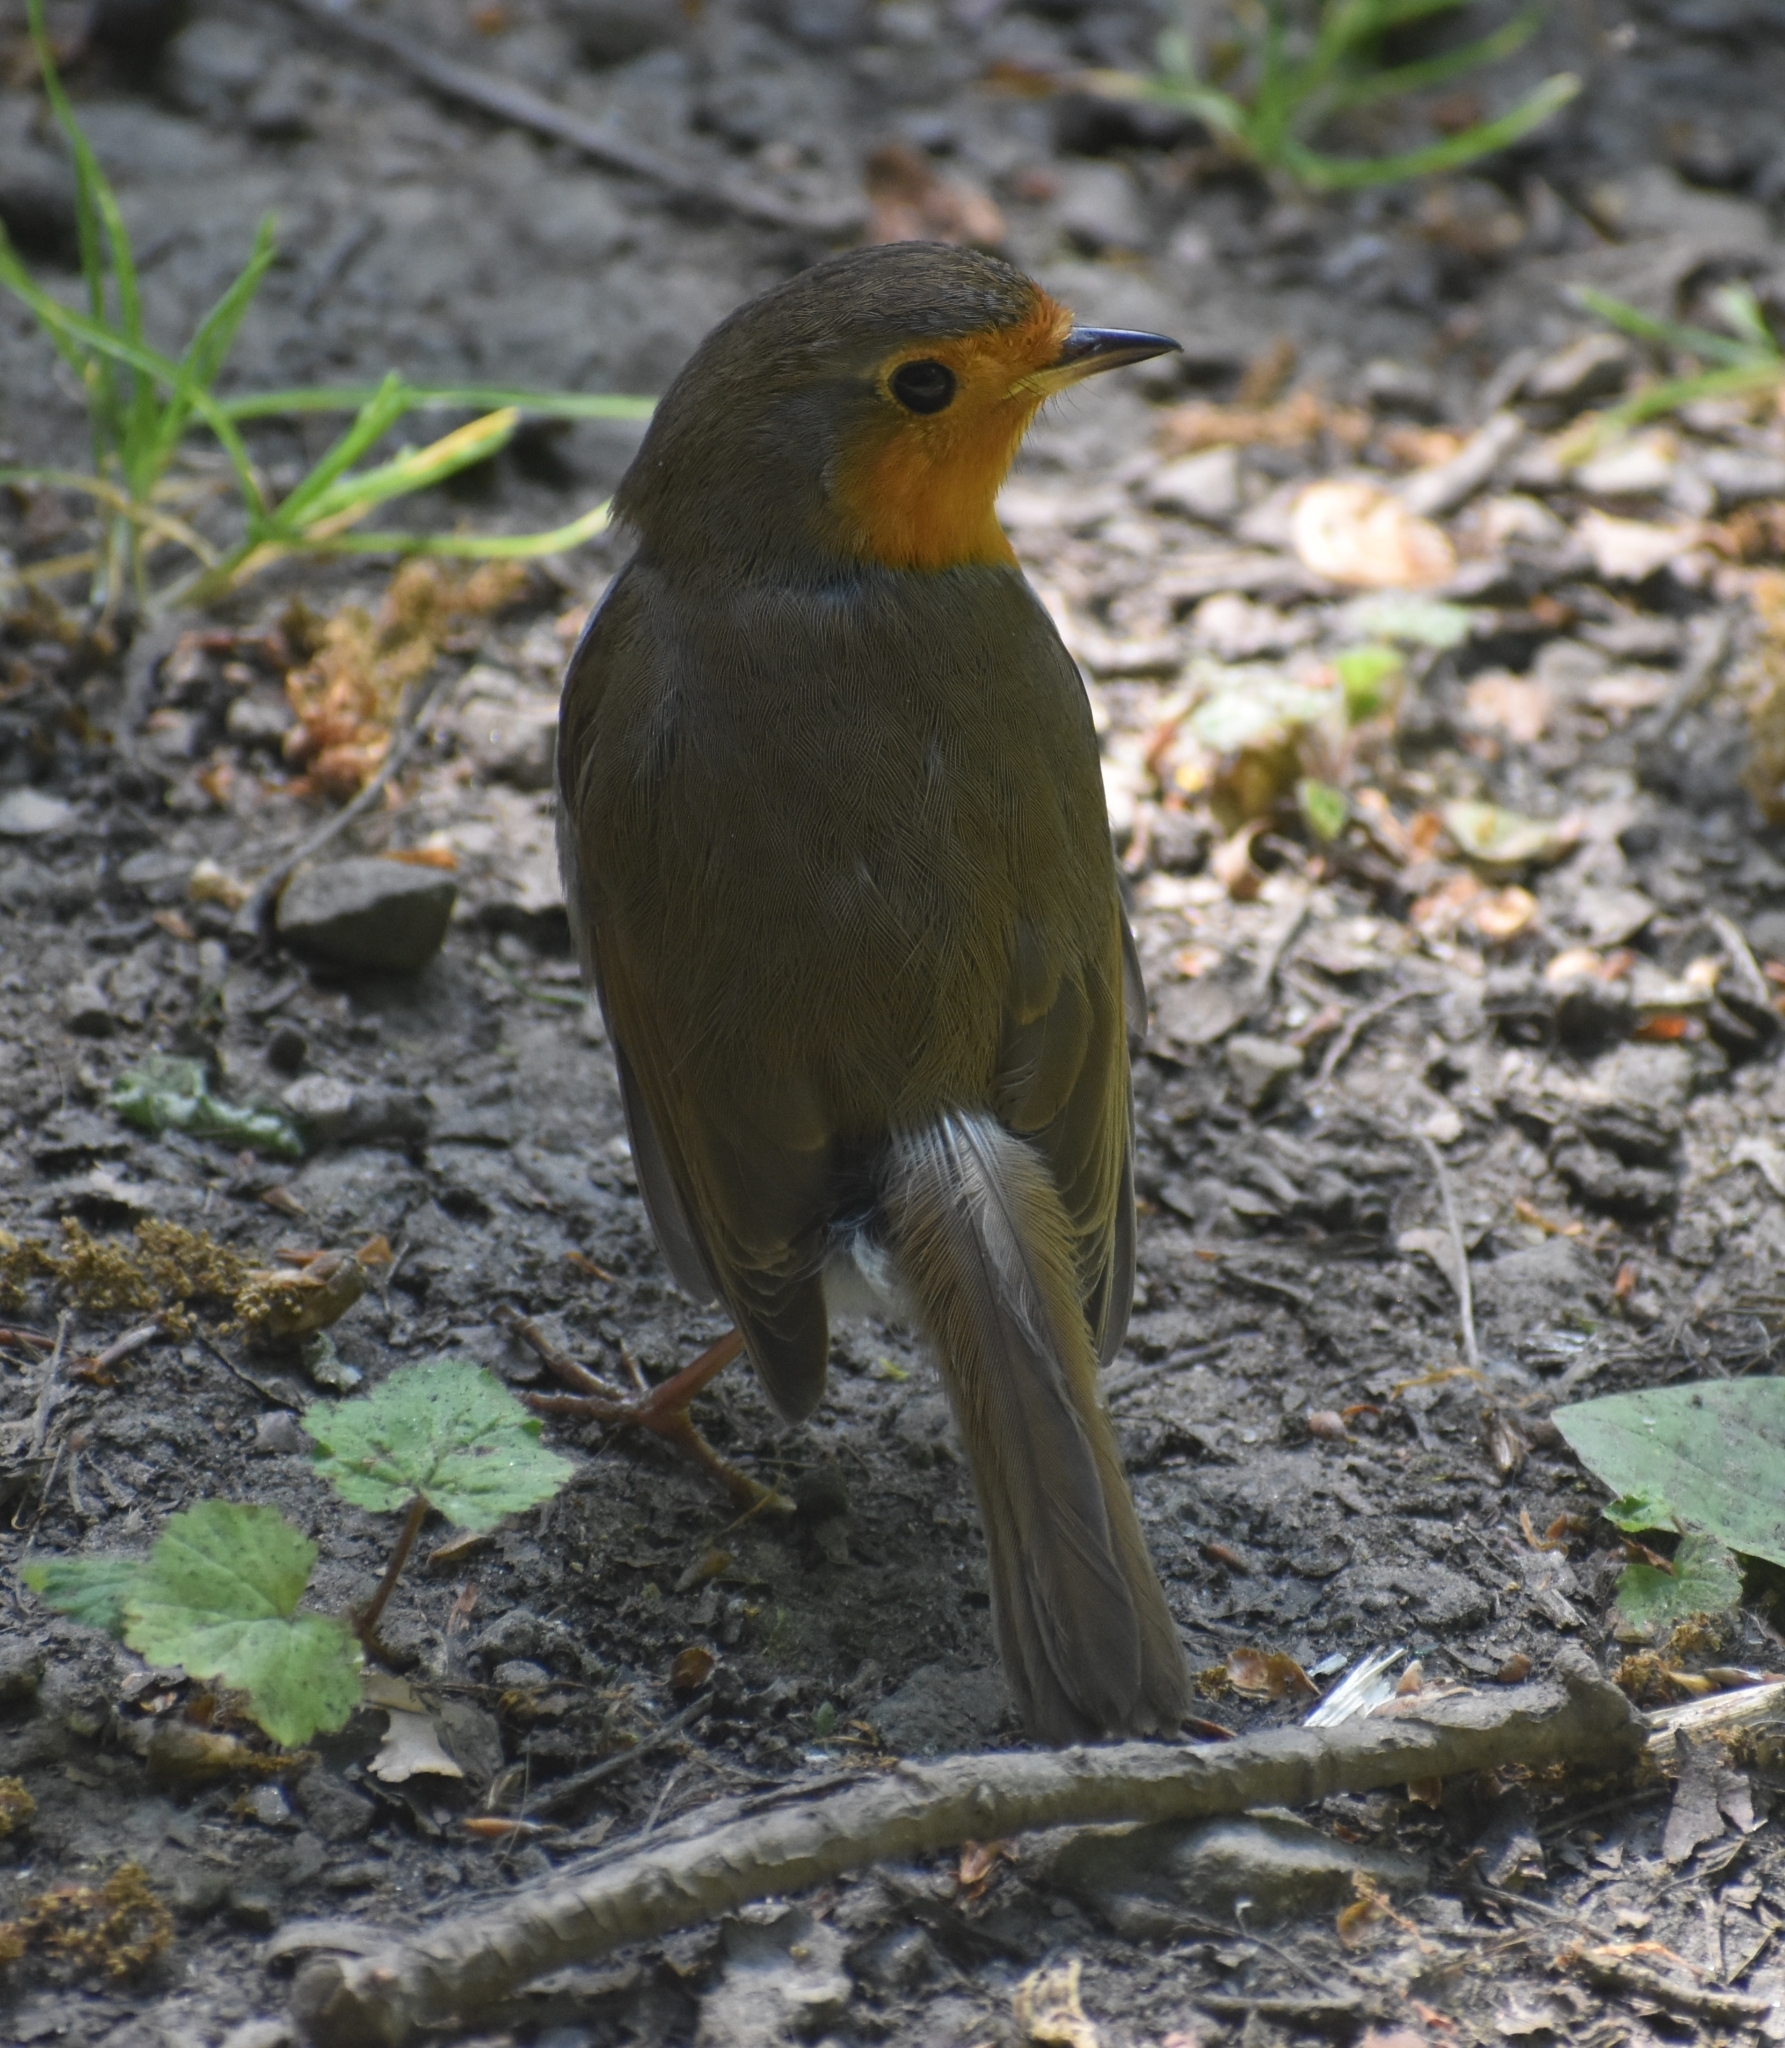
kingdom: Animalia
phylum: Chordata
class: Aves
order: Passeriformes
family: Muscicapidae
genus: Erithacus
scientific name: Erithacus rubecula
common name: European robin
